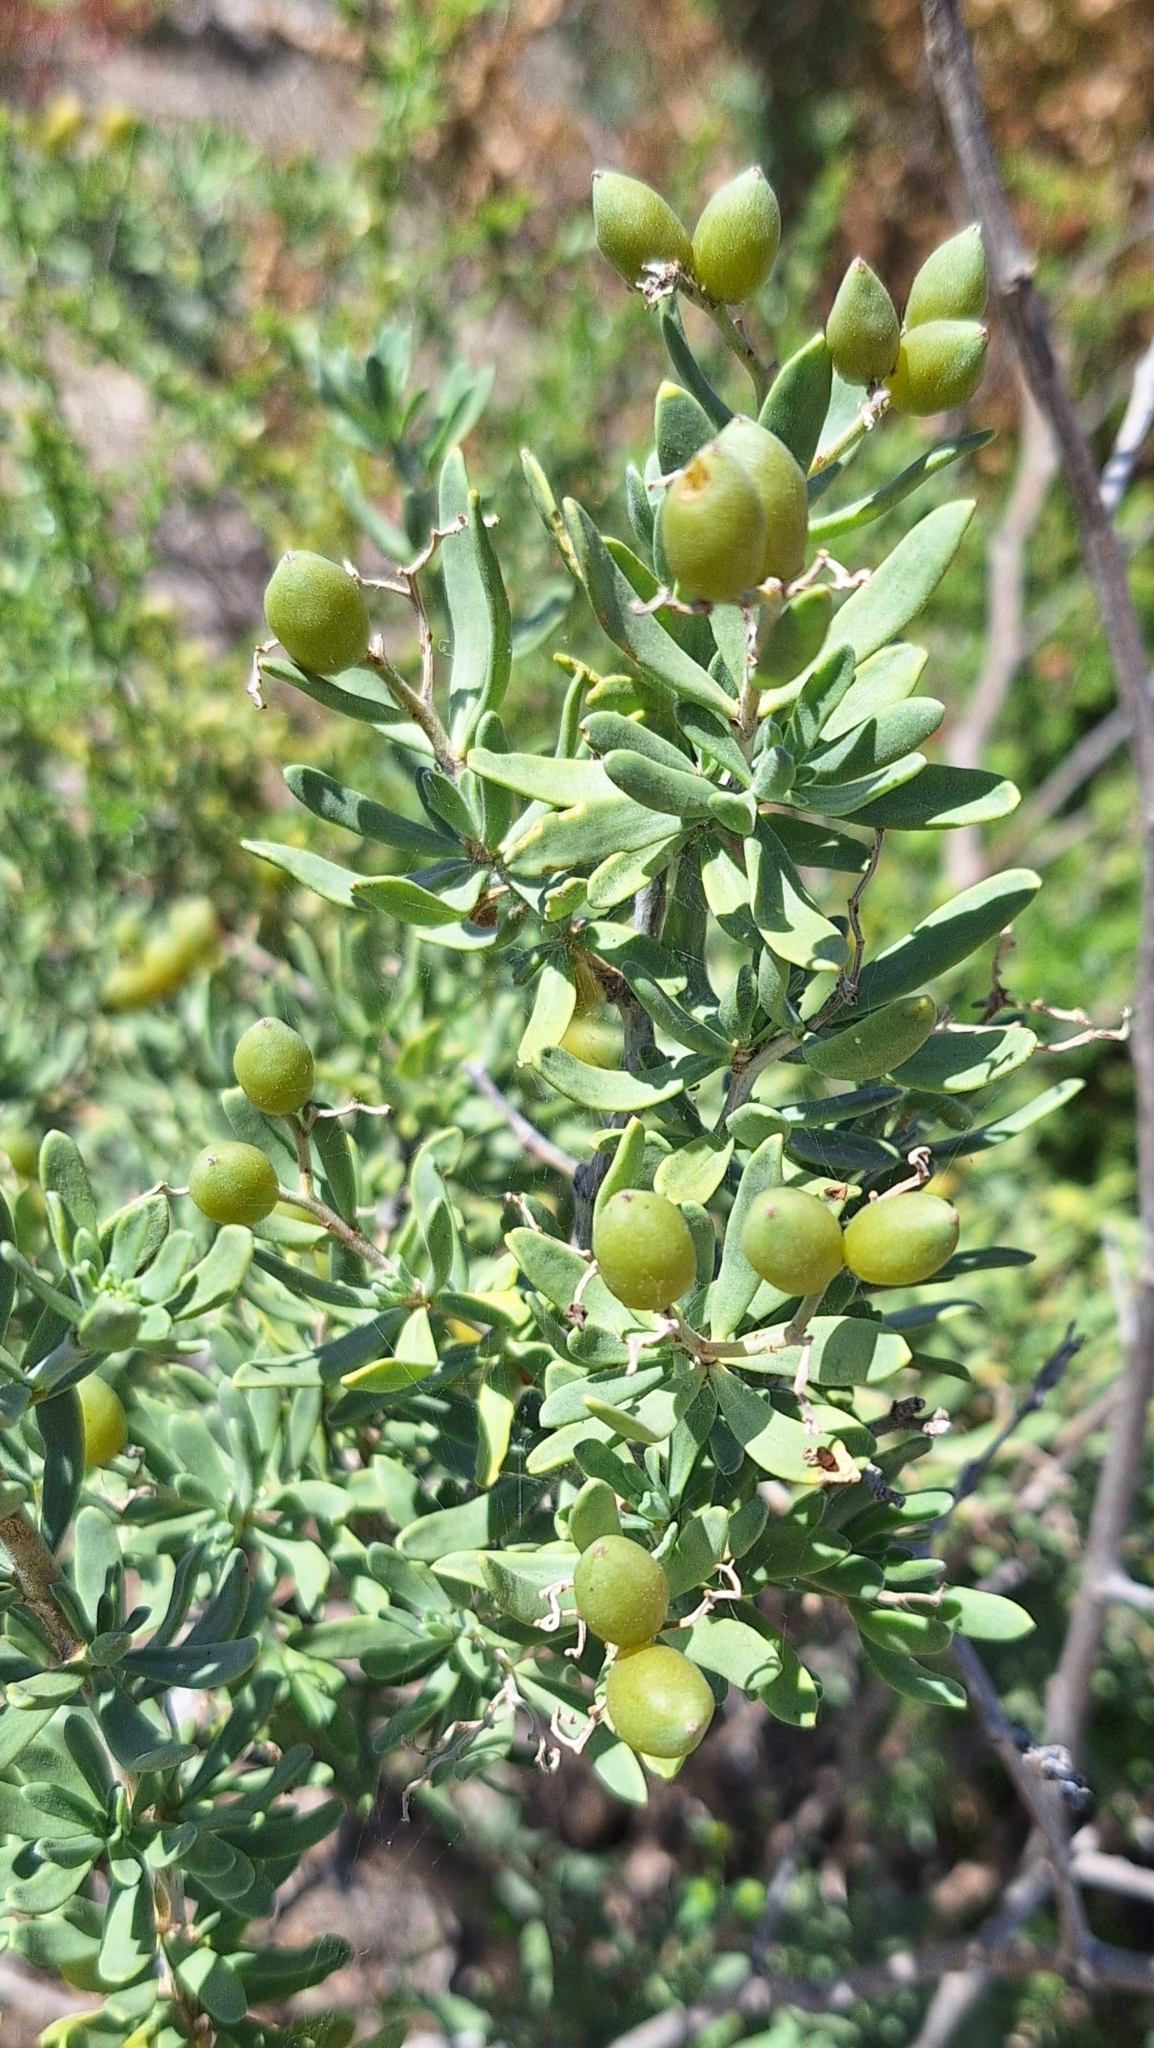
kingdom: Plantae
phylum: Tracheophyta
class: Magnoliopsida
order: Sapindales
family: Nitrariaceae
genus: Nitraria
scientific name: Nitraria billardierei
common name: Dillonbush
